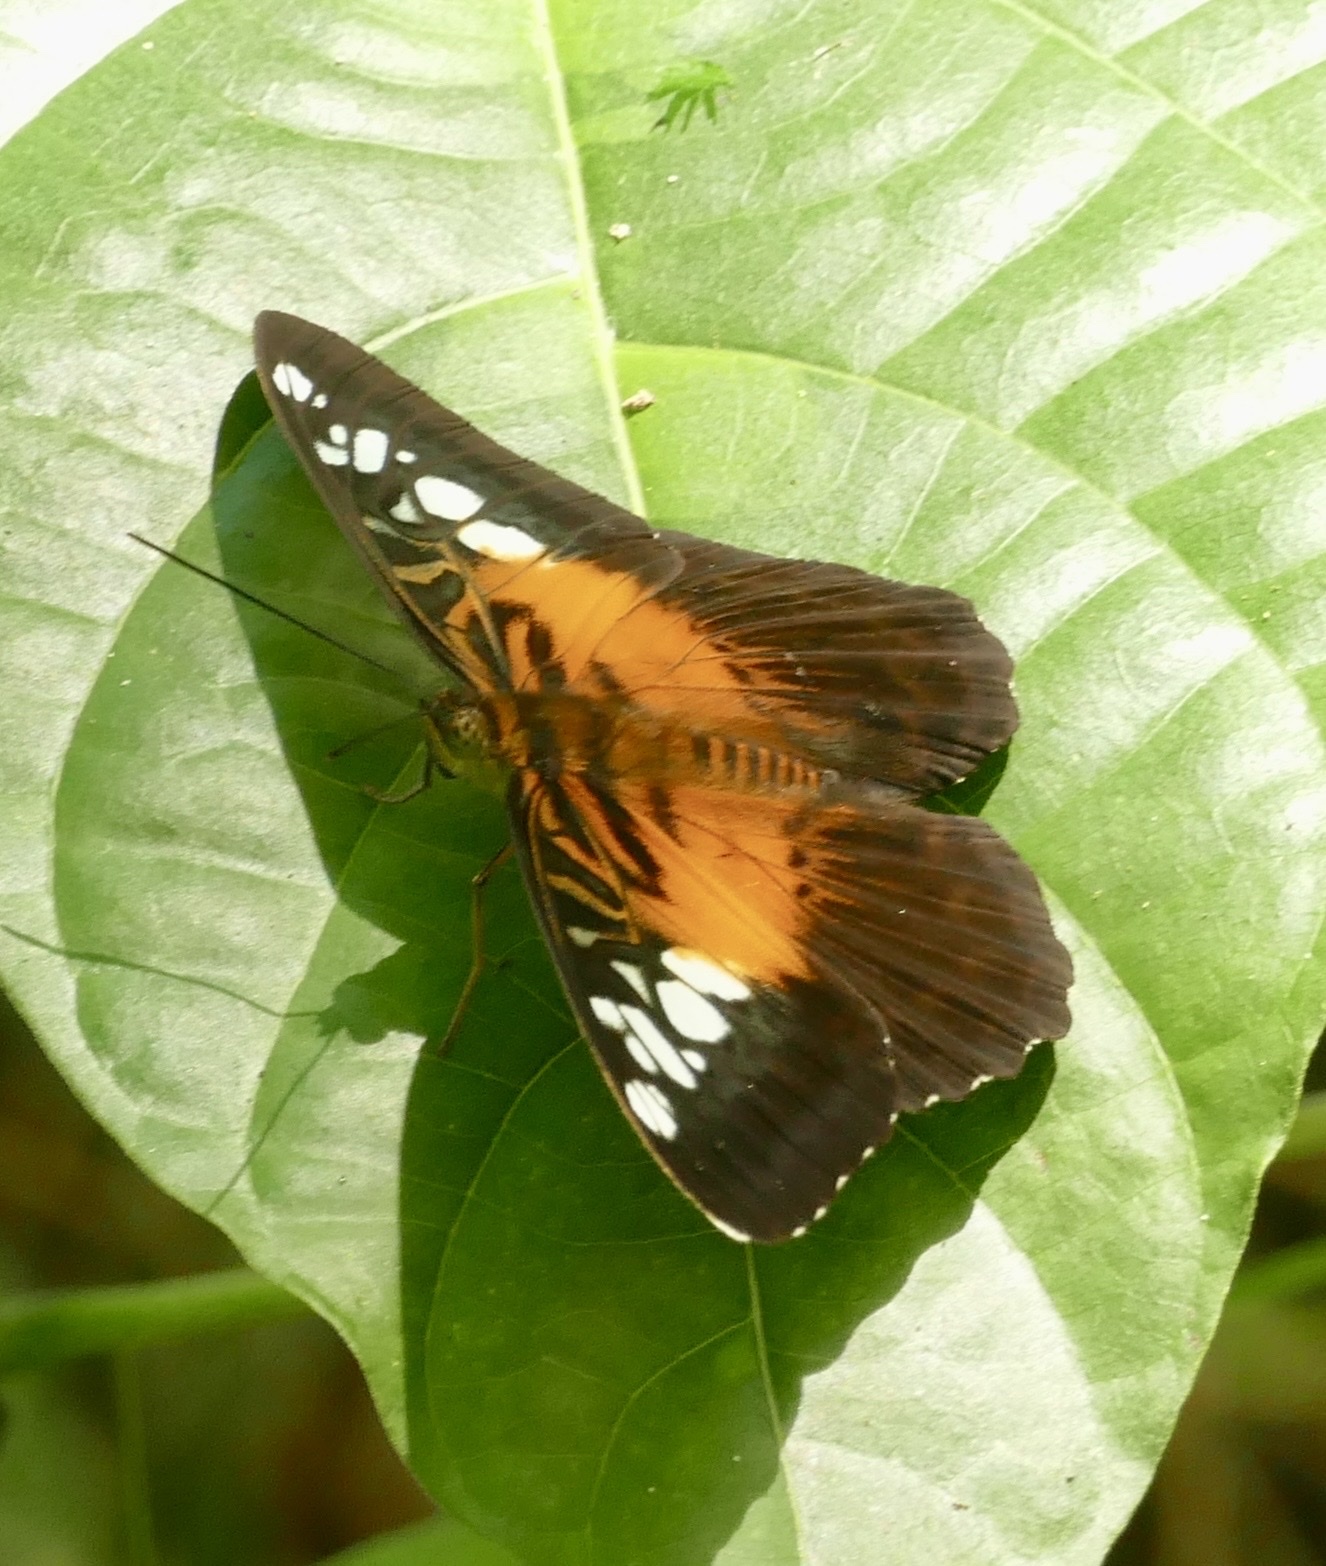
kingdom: Animalia
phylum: Arthropoda
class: Insecta
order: Lepidoptera
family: Nymphalidae
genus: Parthenos
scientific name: Parthenos tigrina
